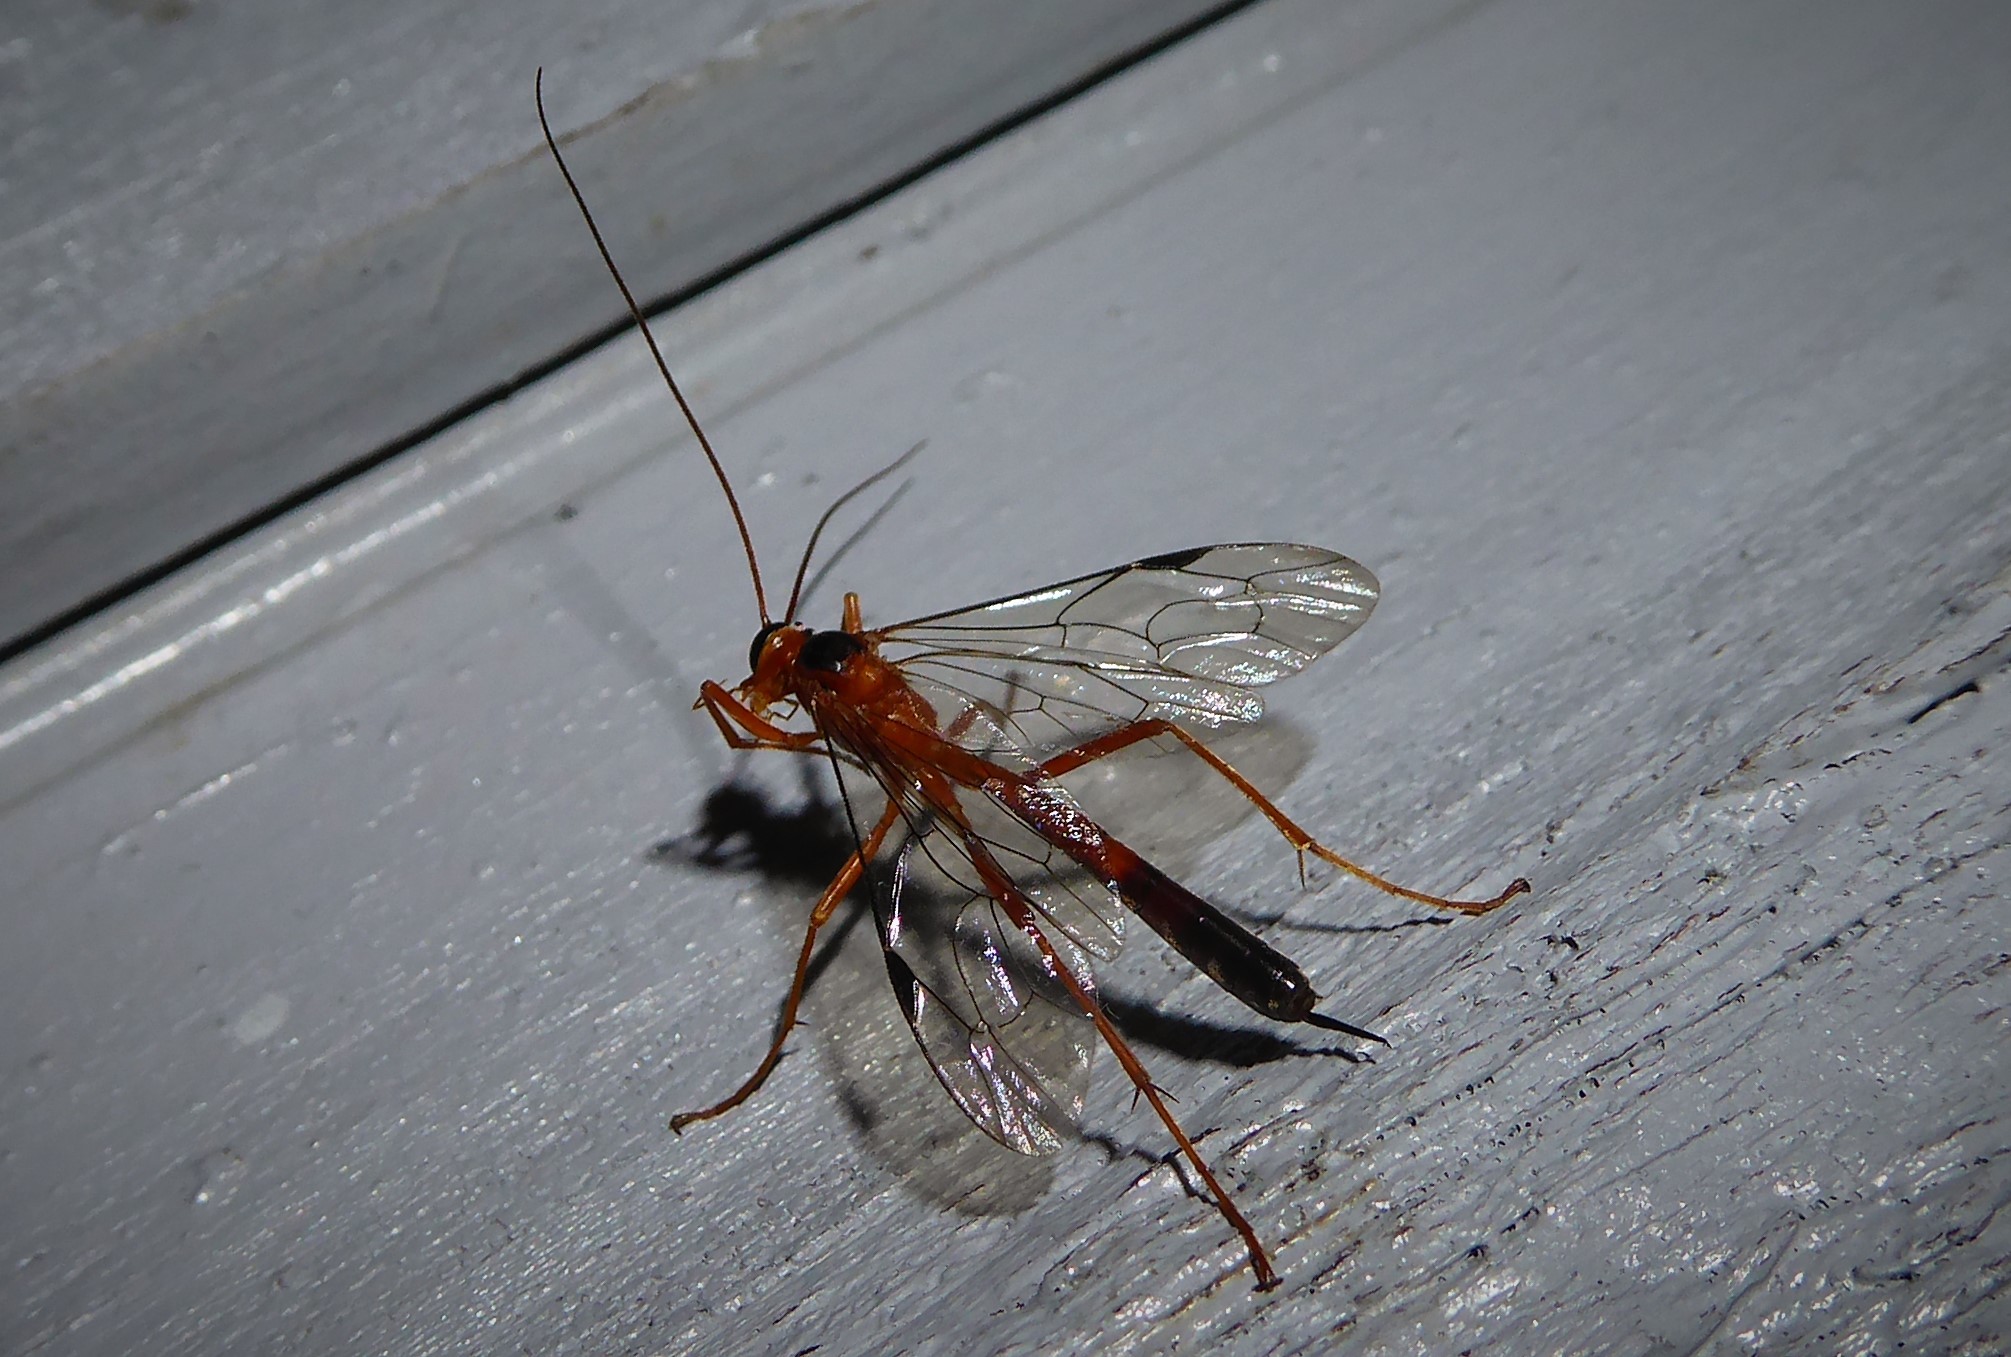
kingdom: Animalia
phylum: Arthropoda
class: Insecta
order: Hymenoptera
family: Ichneumonidae
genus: Netelia
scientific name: Netelia ephippiata
